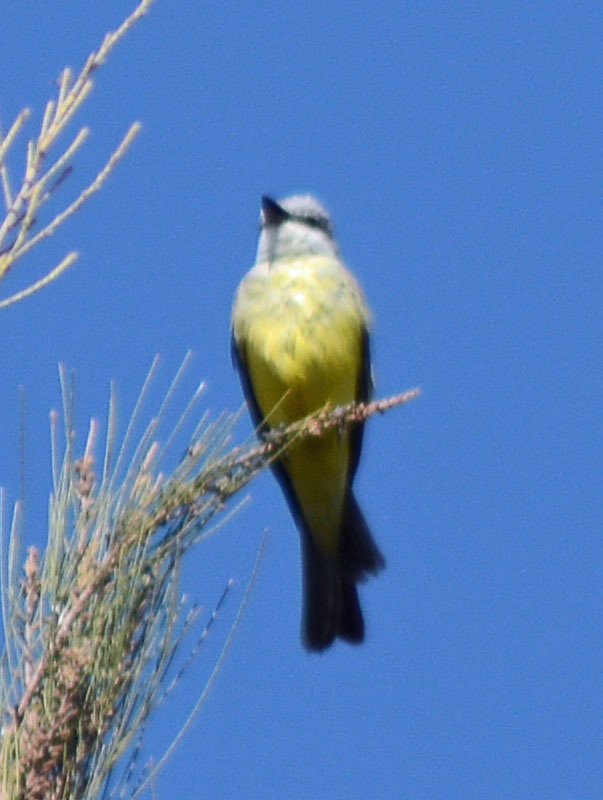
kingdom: Animalia
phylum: Chordata
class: Aves
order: Passeriformes
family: Tyrannidae
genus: Tyrannus
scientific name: Tyrannus melancholicus
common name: Tropical kingbird
